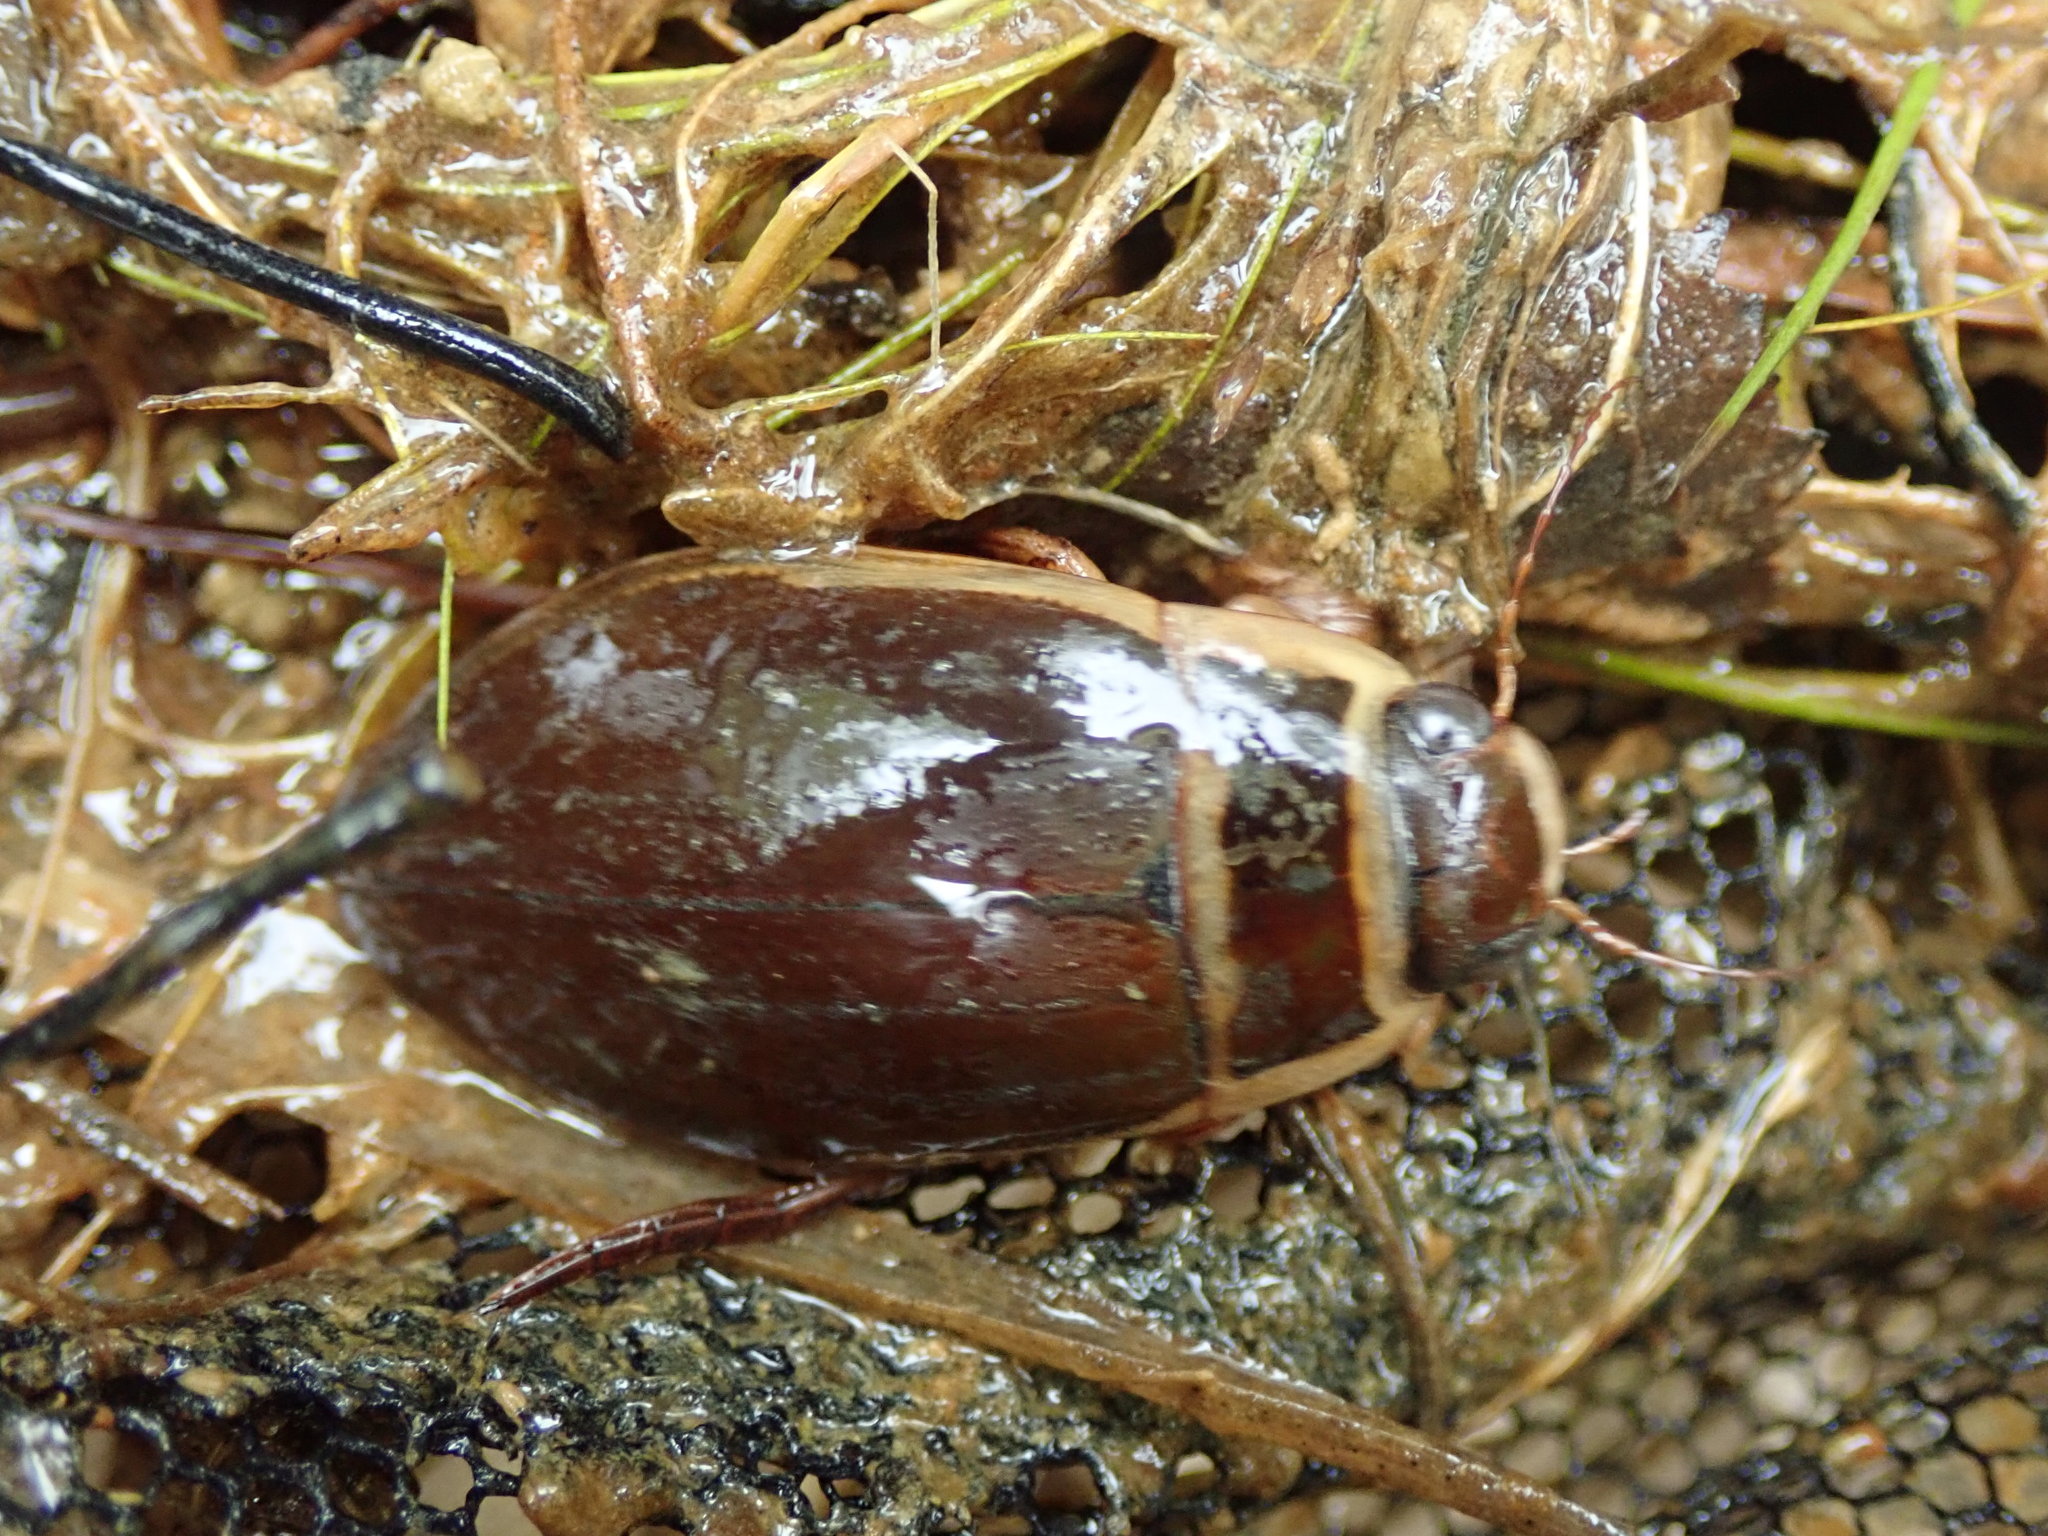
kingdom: Animalia
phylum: Arthropoda
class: Insecta
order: Coleoptera
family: Dytiscidae
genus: Dytiscus
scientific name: Dytiscus marginalis
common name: Great water beetle
